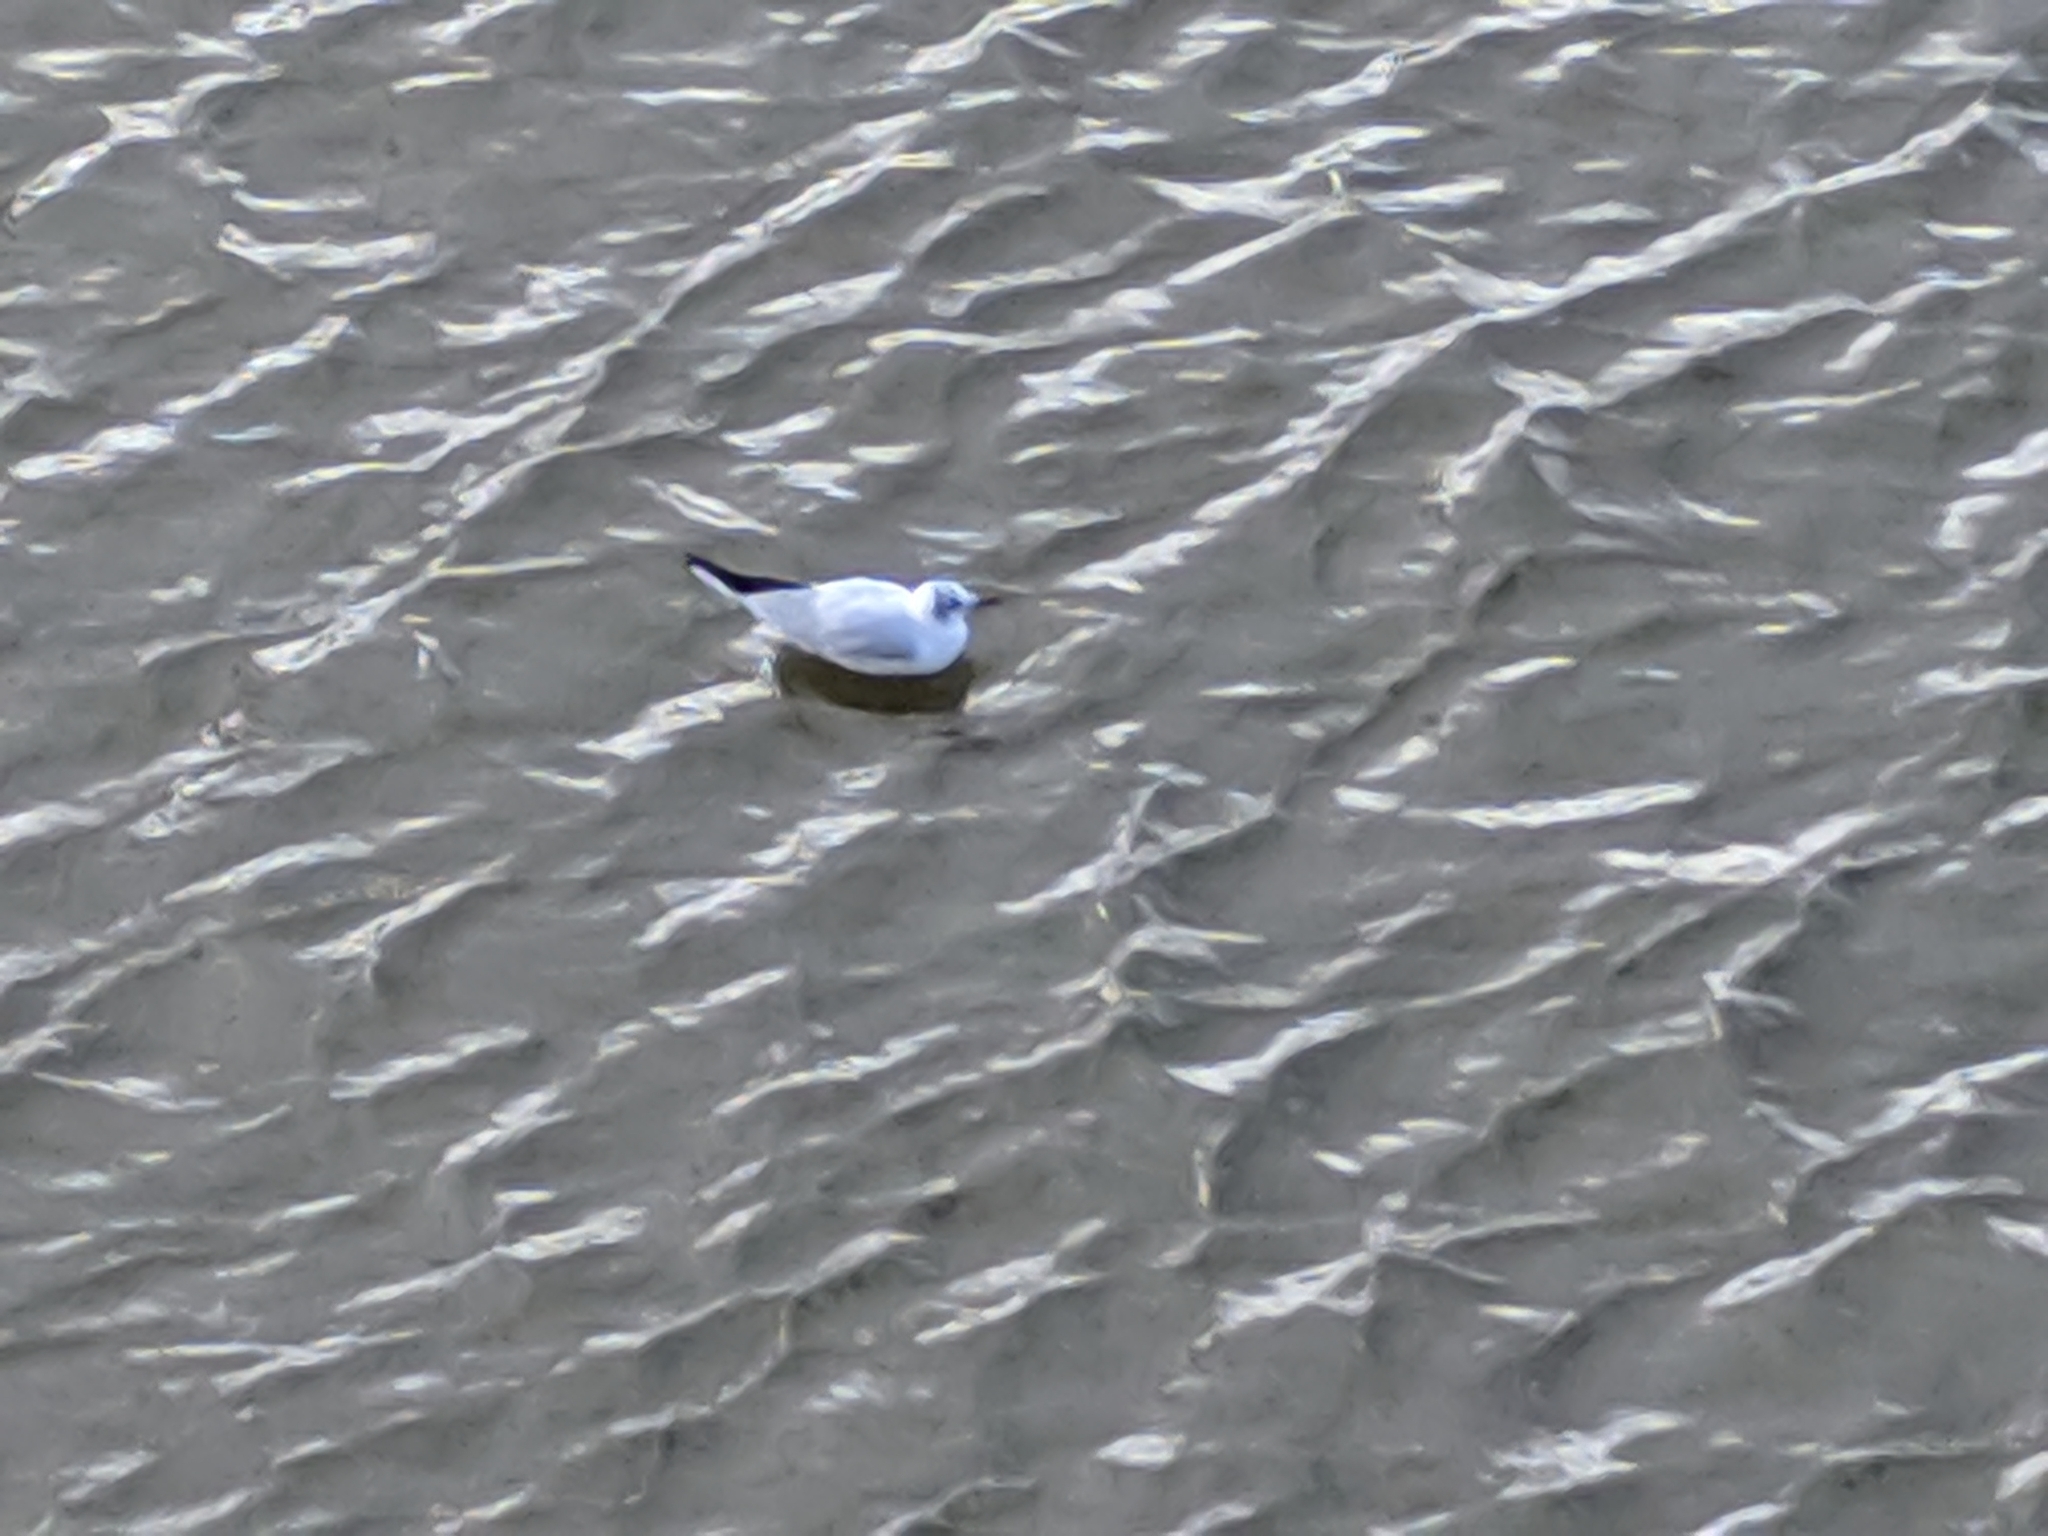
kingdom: Animalia
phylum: Chordata
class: Aves
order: Charadriiformes
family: Laridae
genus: Chroicocephalus
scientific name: Chroicocephalus ridibundus
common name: Black-headed gull
